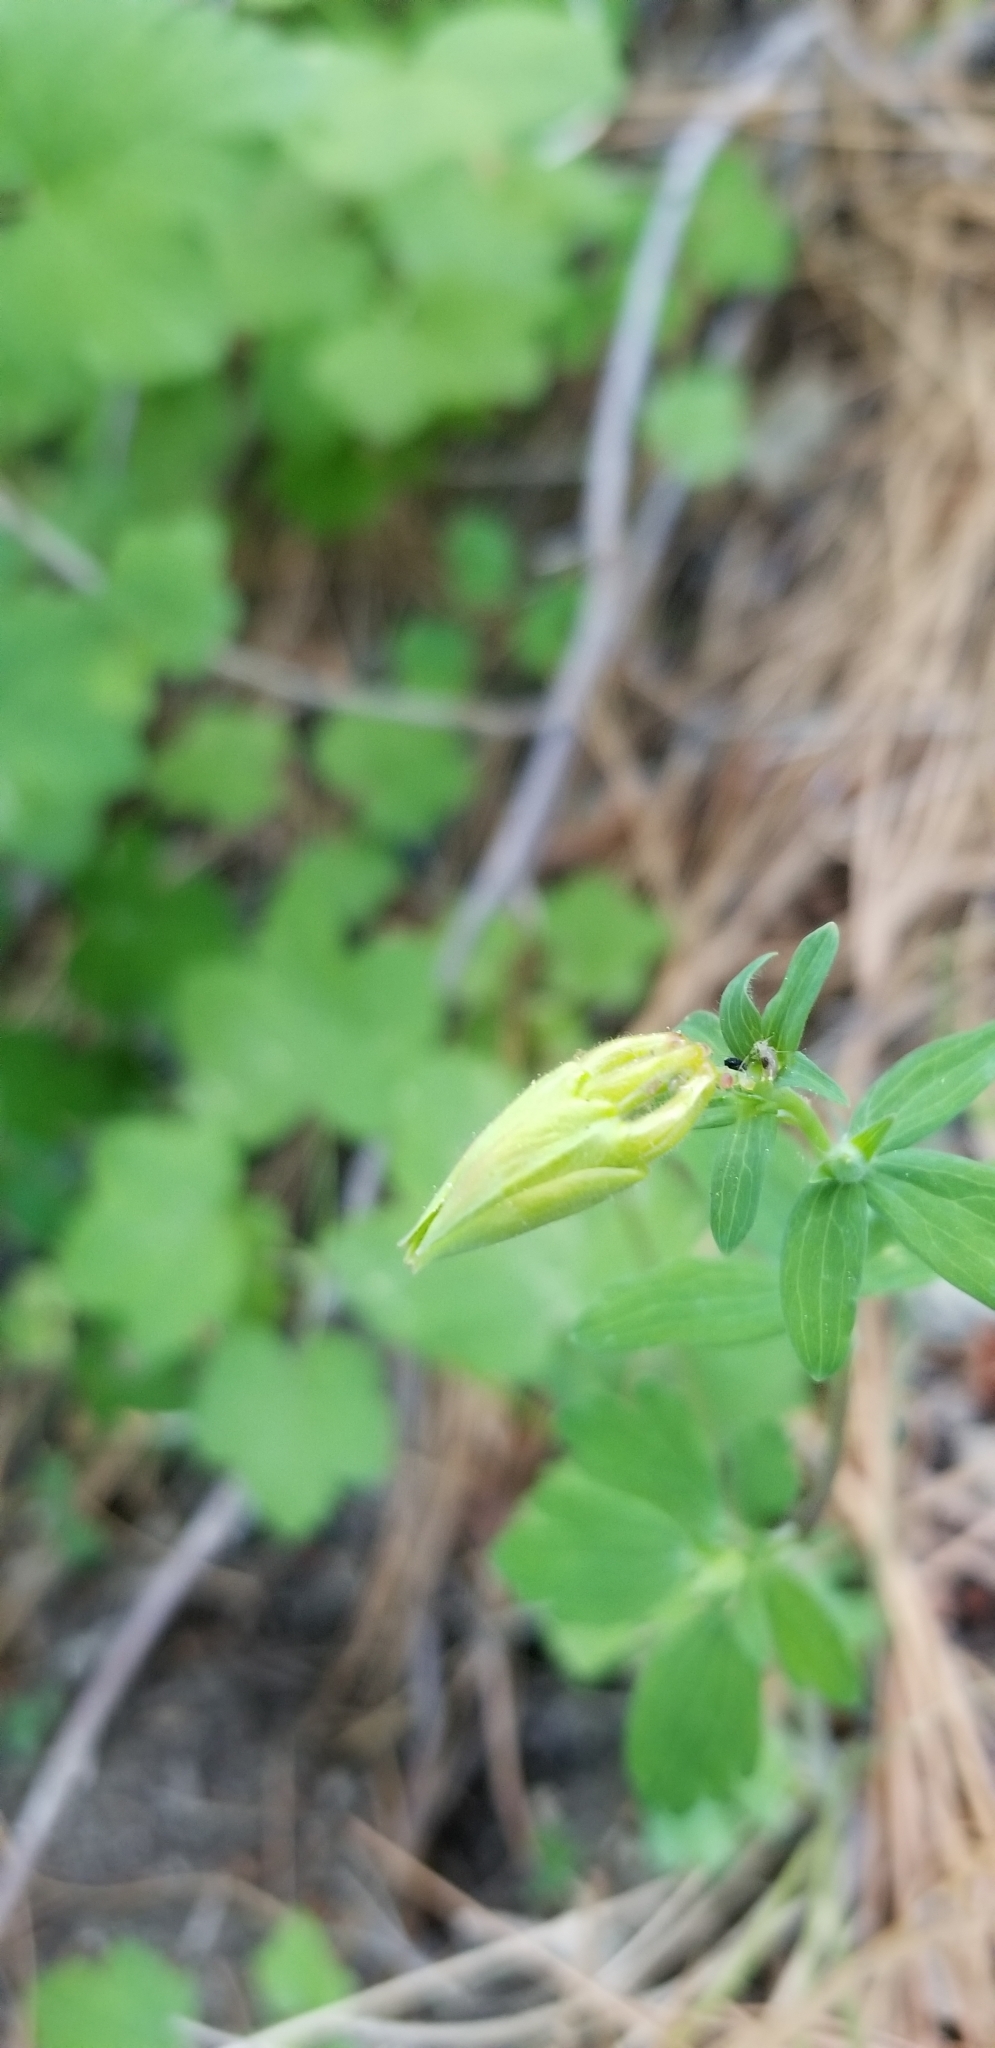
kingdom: Plantae
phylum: Tracheophyta
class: Magnoliopsida
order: Ranunculales
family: Ranunculaceae
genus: Aquilegia
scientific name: Aquilegia formosa
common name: Sitka columbine
